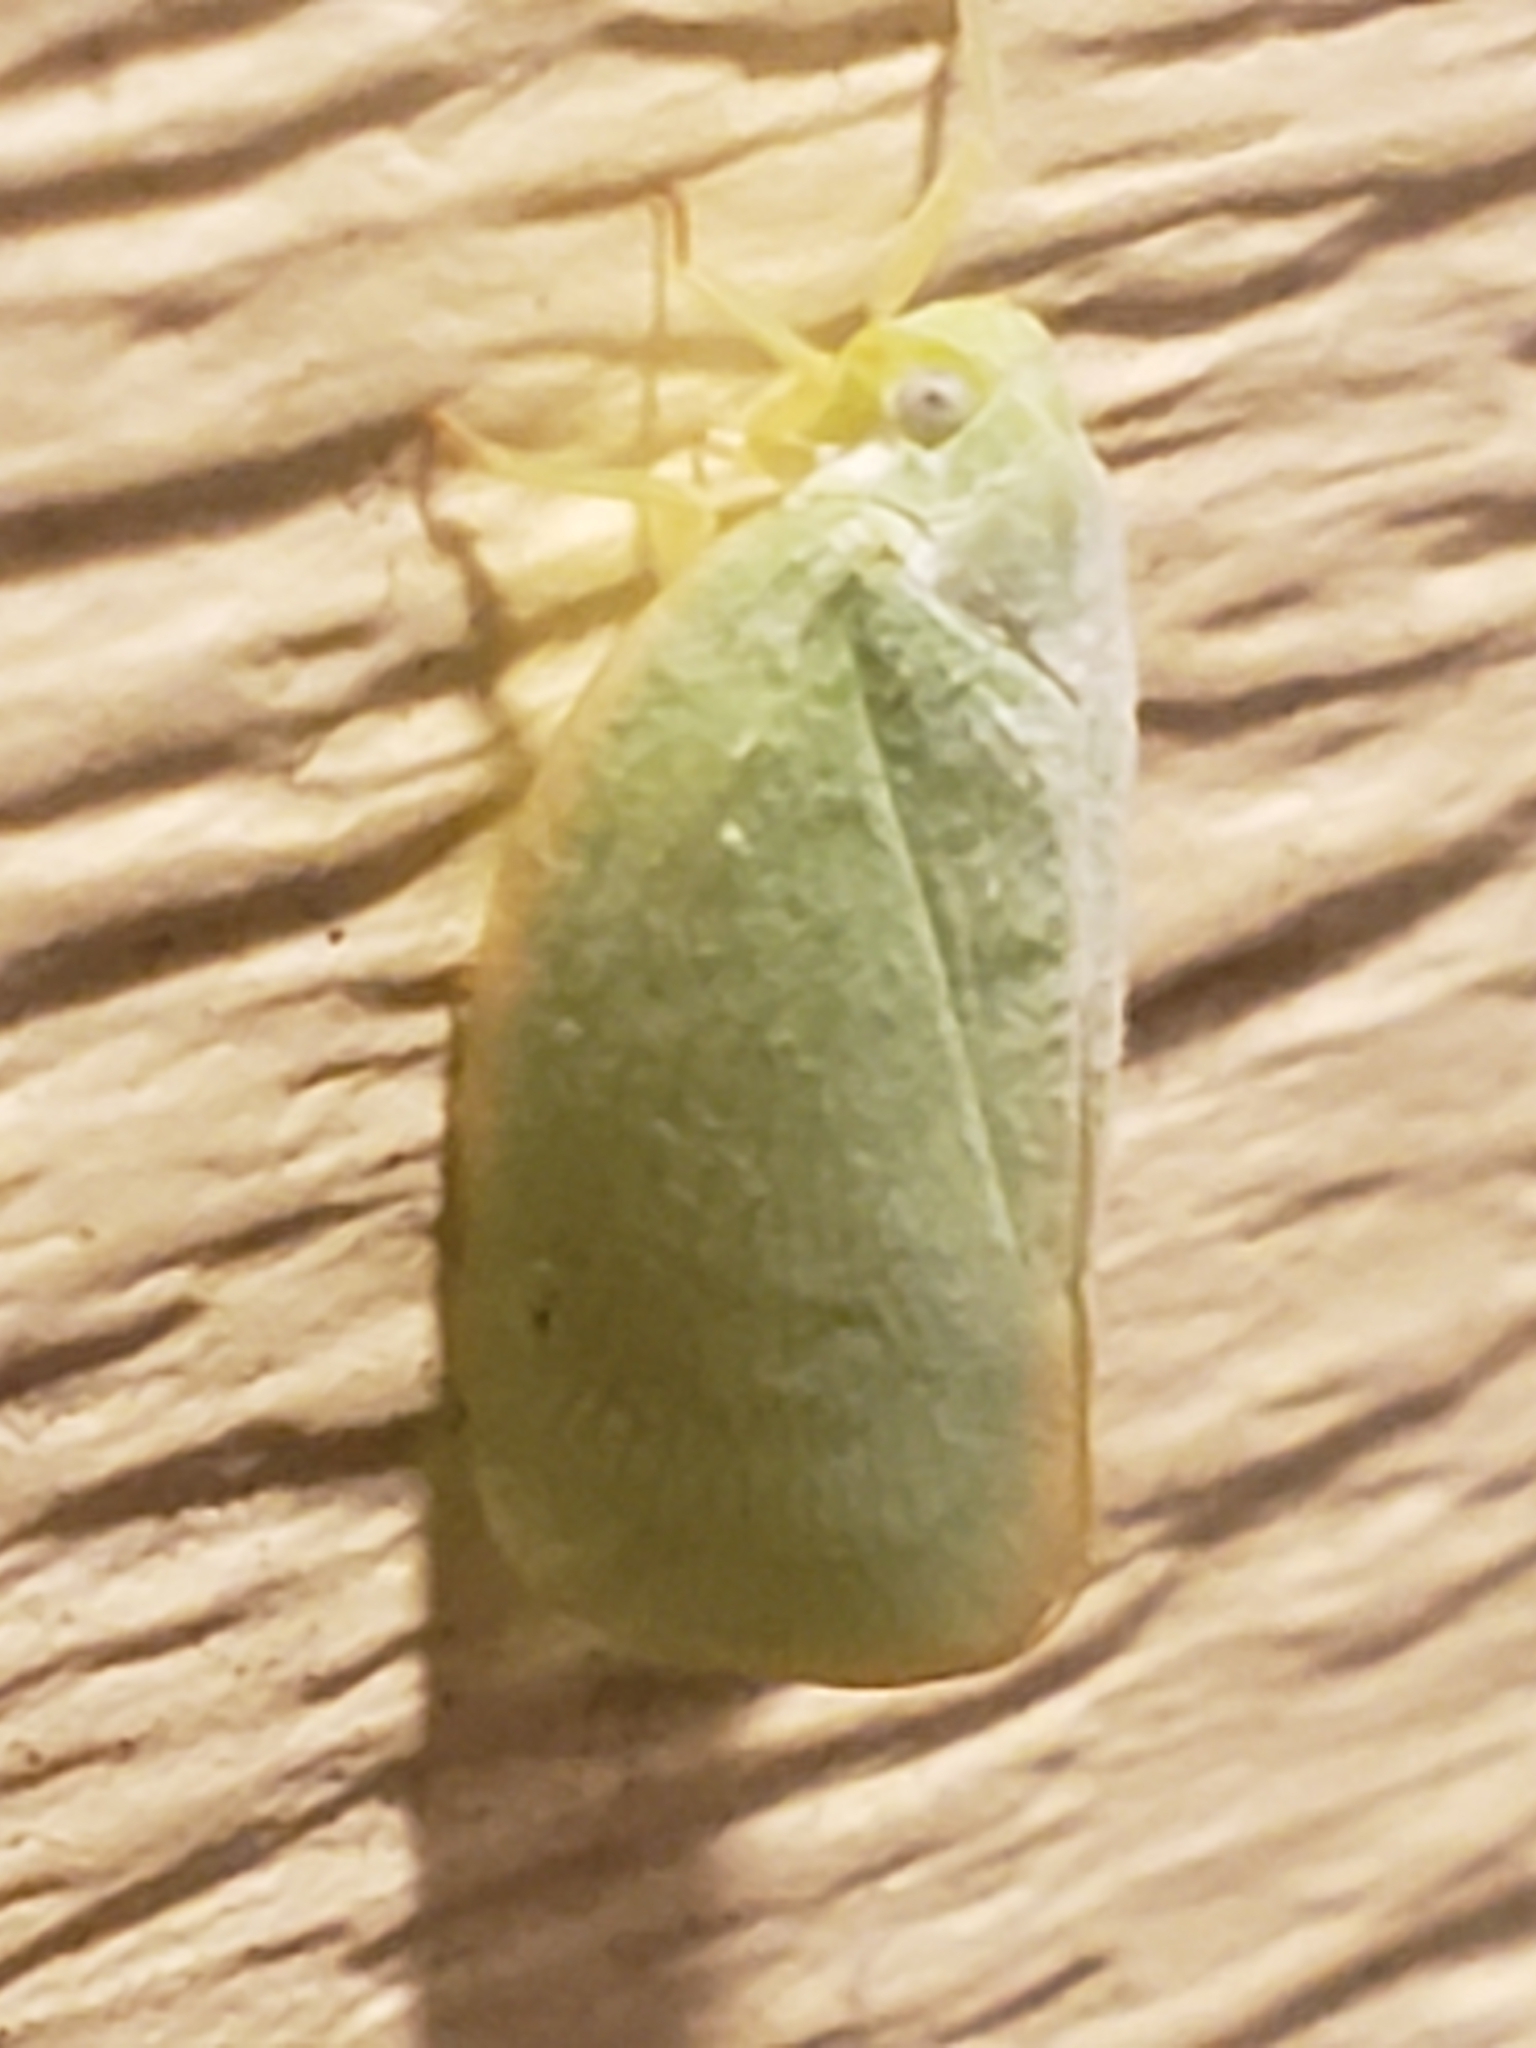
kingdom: Animalia
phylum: Arthropoda
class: Insecta
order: Hemiptera
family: Flatidae
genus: Ormenoides
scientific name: Ormenoides venusta
